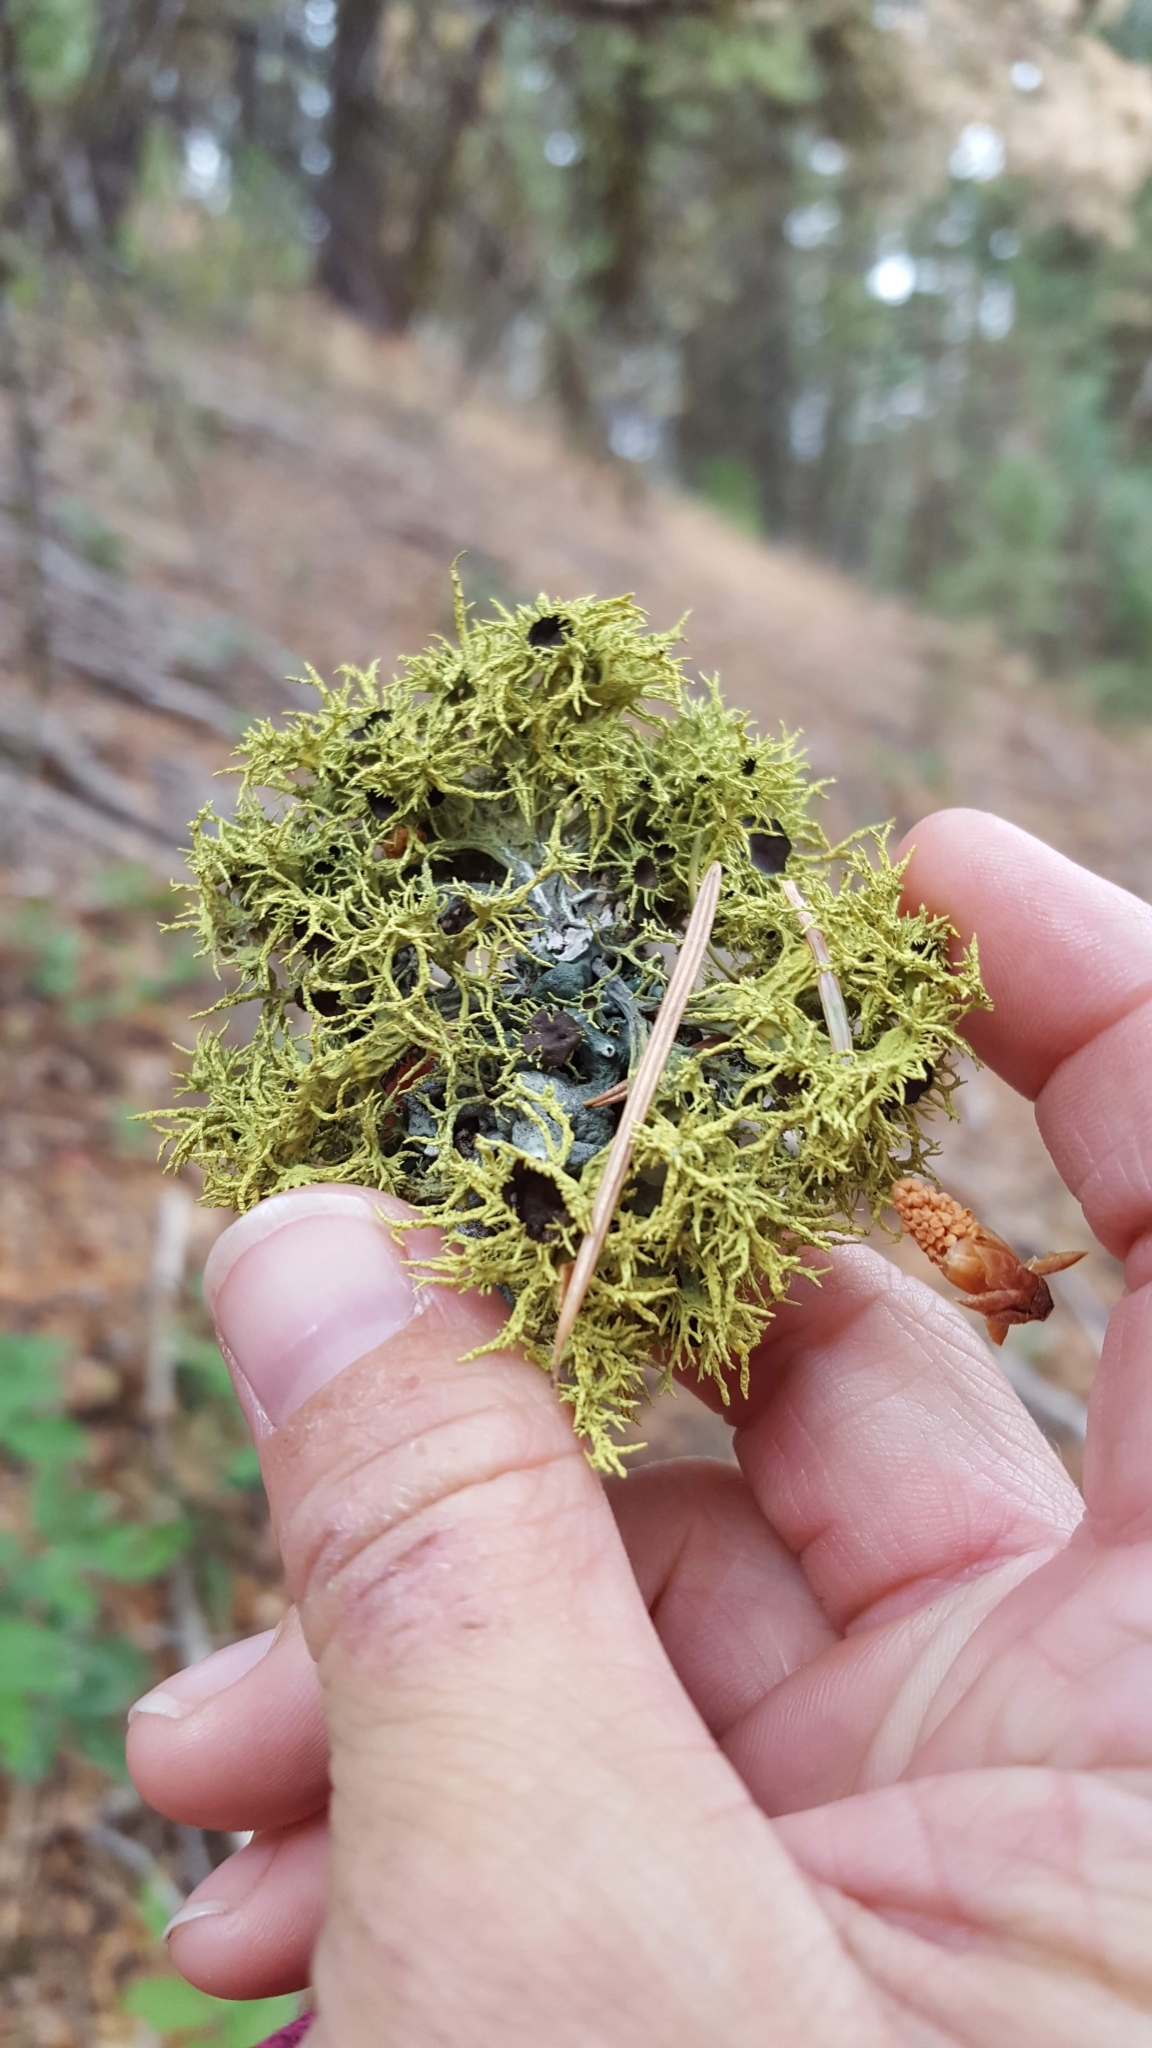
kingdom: Fungi
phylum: Ascomycota
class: Lecanoromycetes
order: Lecanorales
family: Parmeliaceae
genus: Letharia
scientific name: Letharia columbiana
